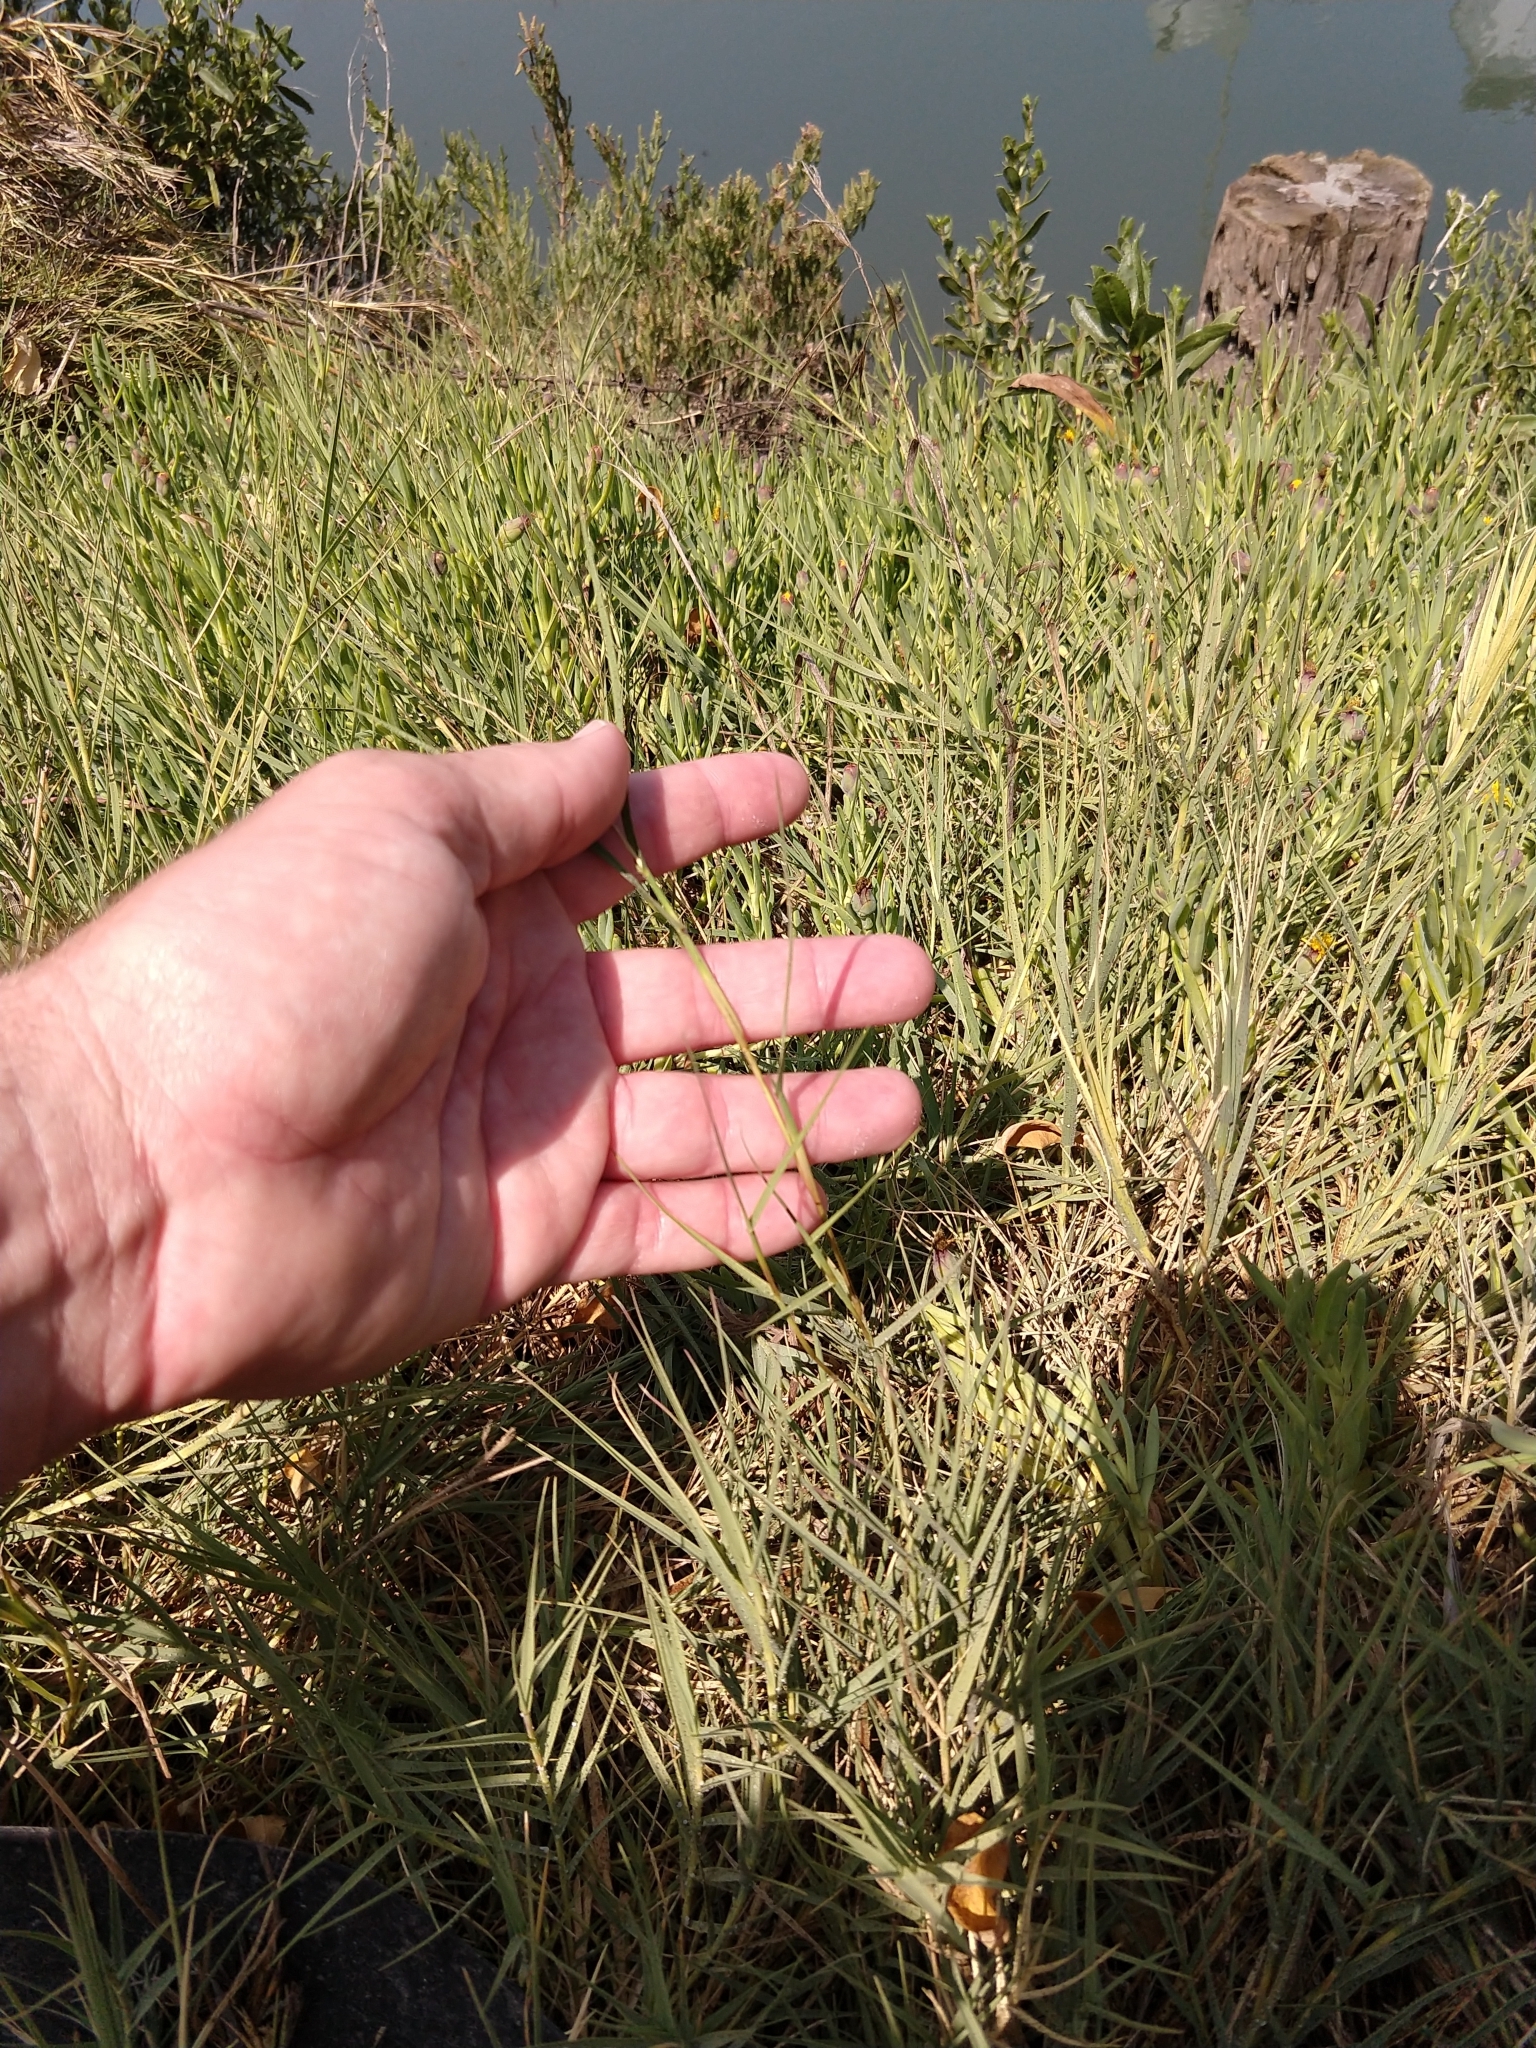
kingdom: Plantae
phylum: Tracheophyta
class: Liliopsida
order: Poales
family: Poaceae
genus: Distichlis
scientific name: Distichlis spicata
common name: Saltgrass
